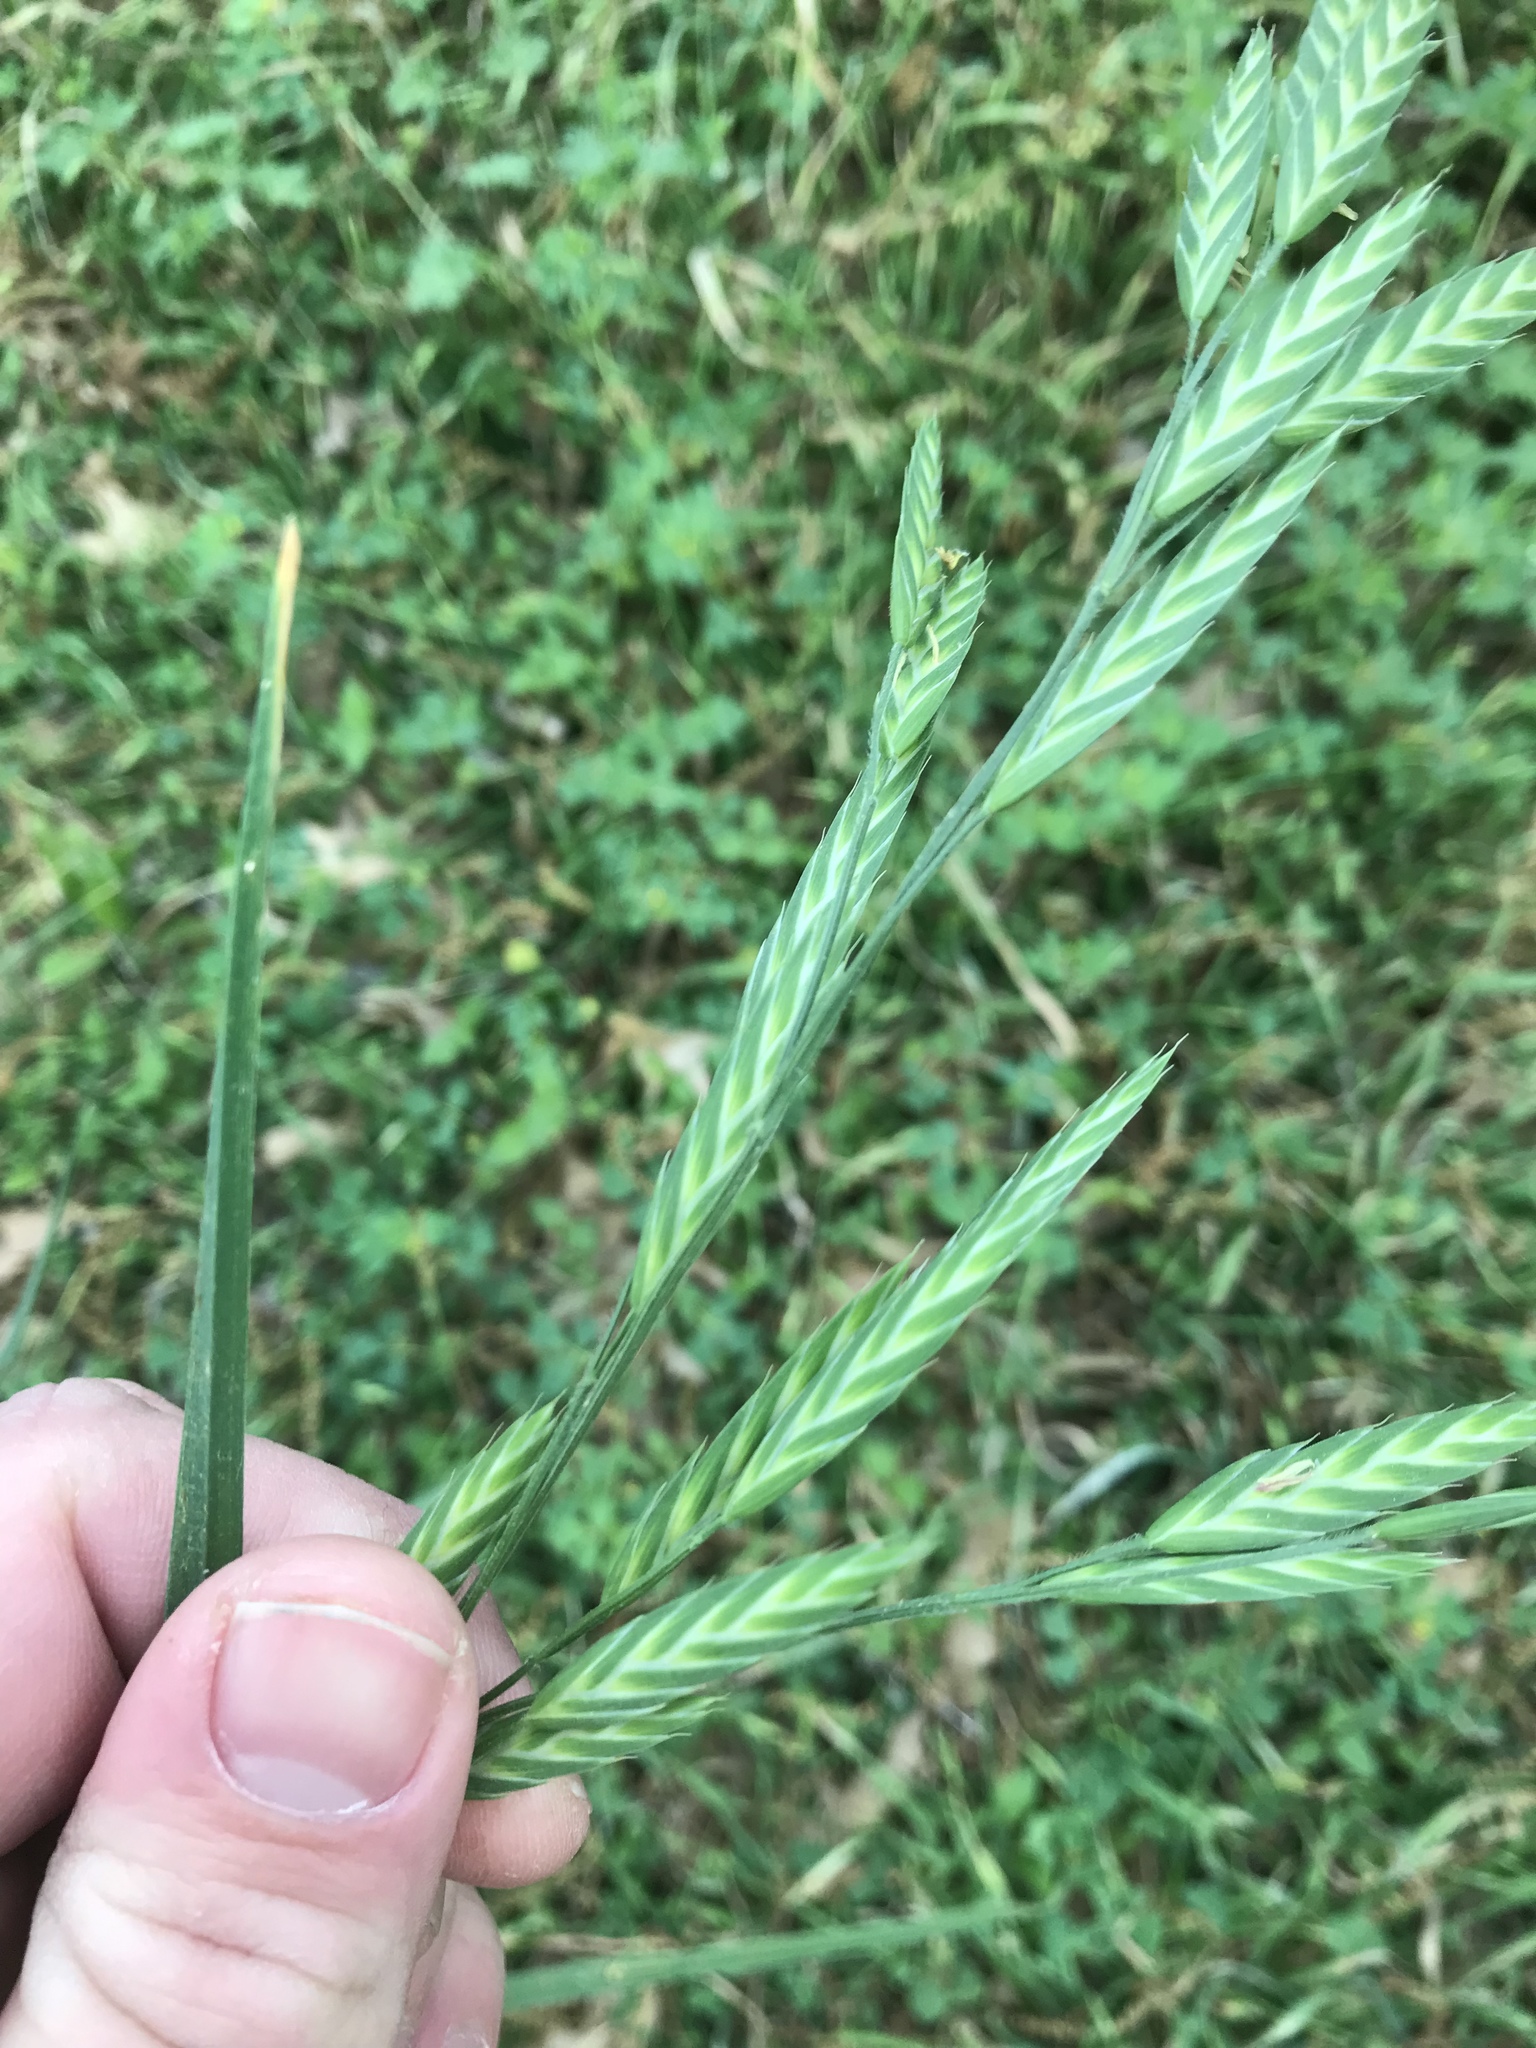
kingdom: Plantae
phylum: Tracheophyta
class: Liliopsida
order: Poales
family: Poaceae
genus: Bromus
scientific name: Bromus catharticus
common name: Rescuegrass
